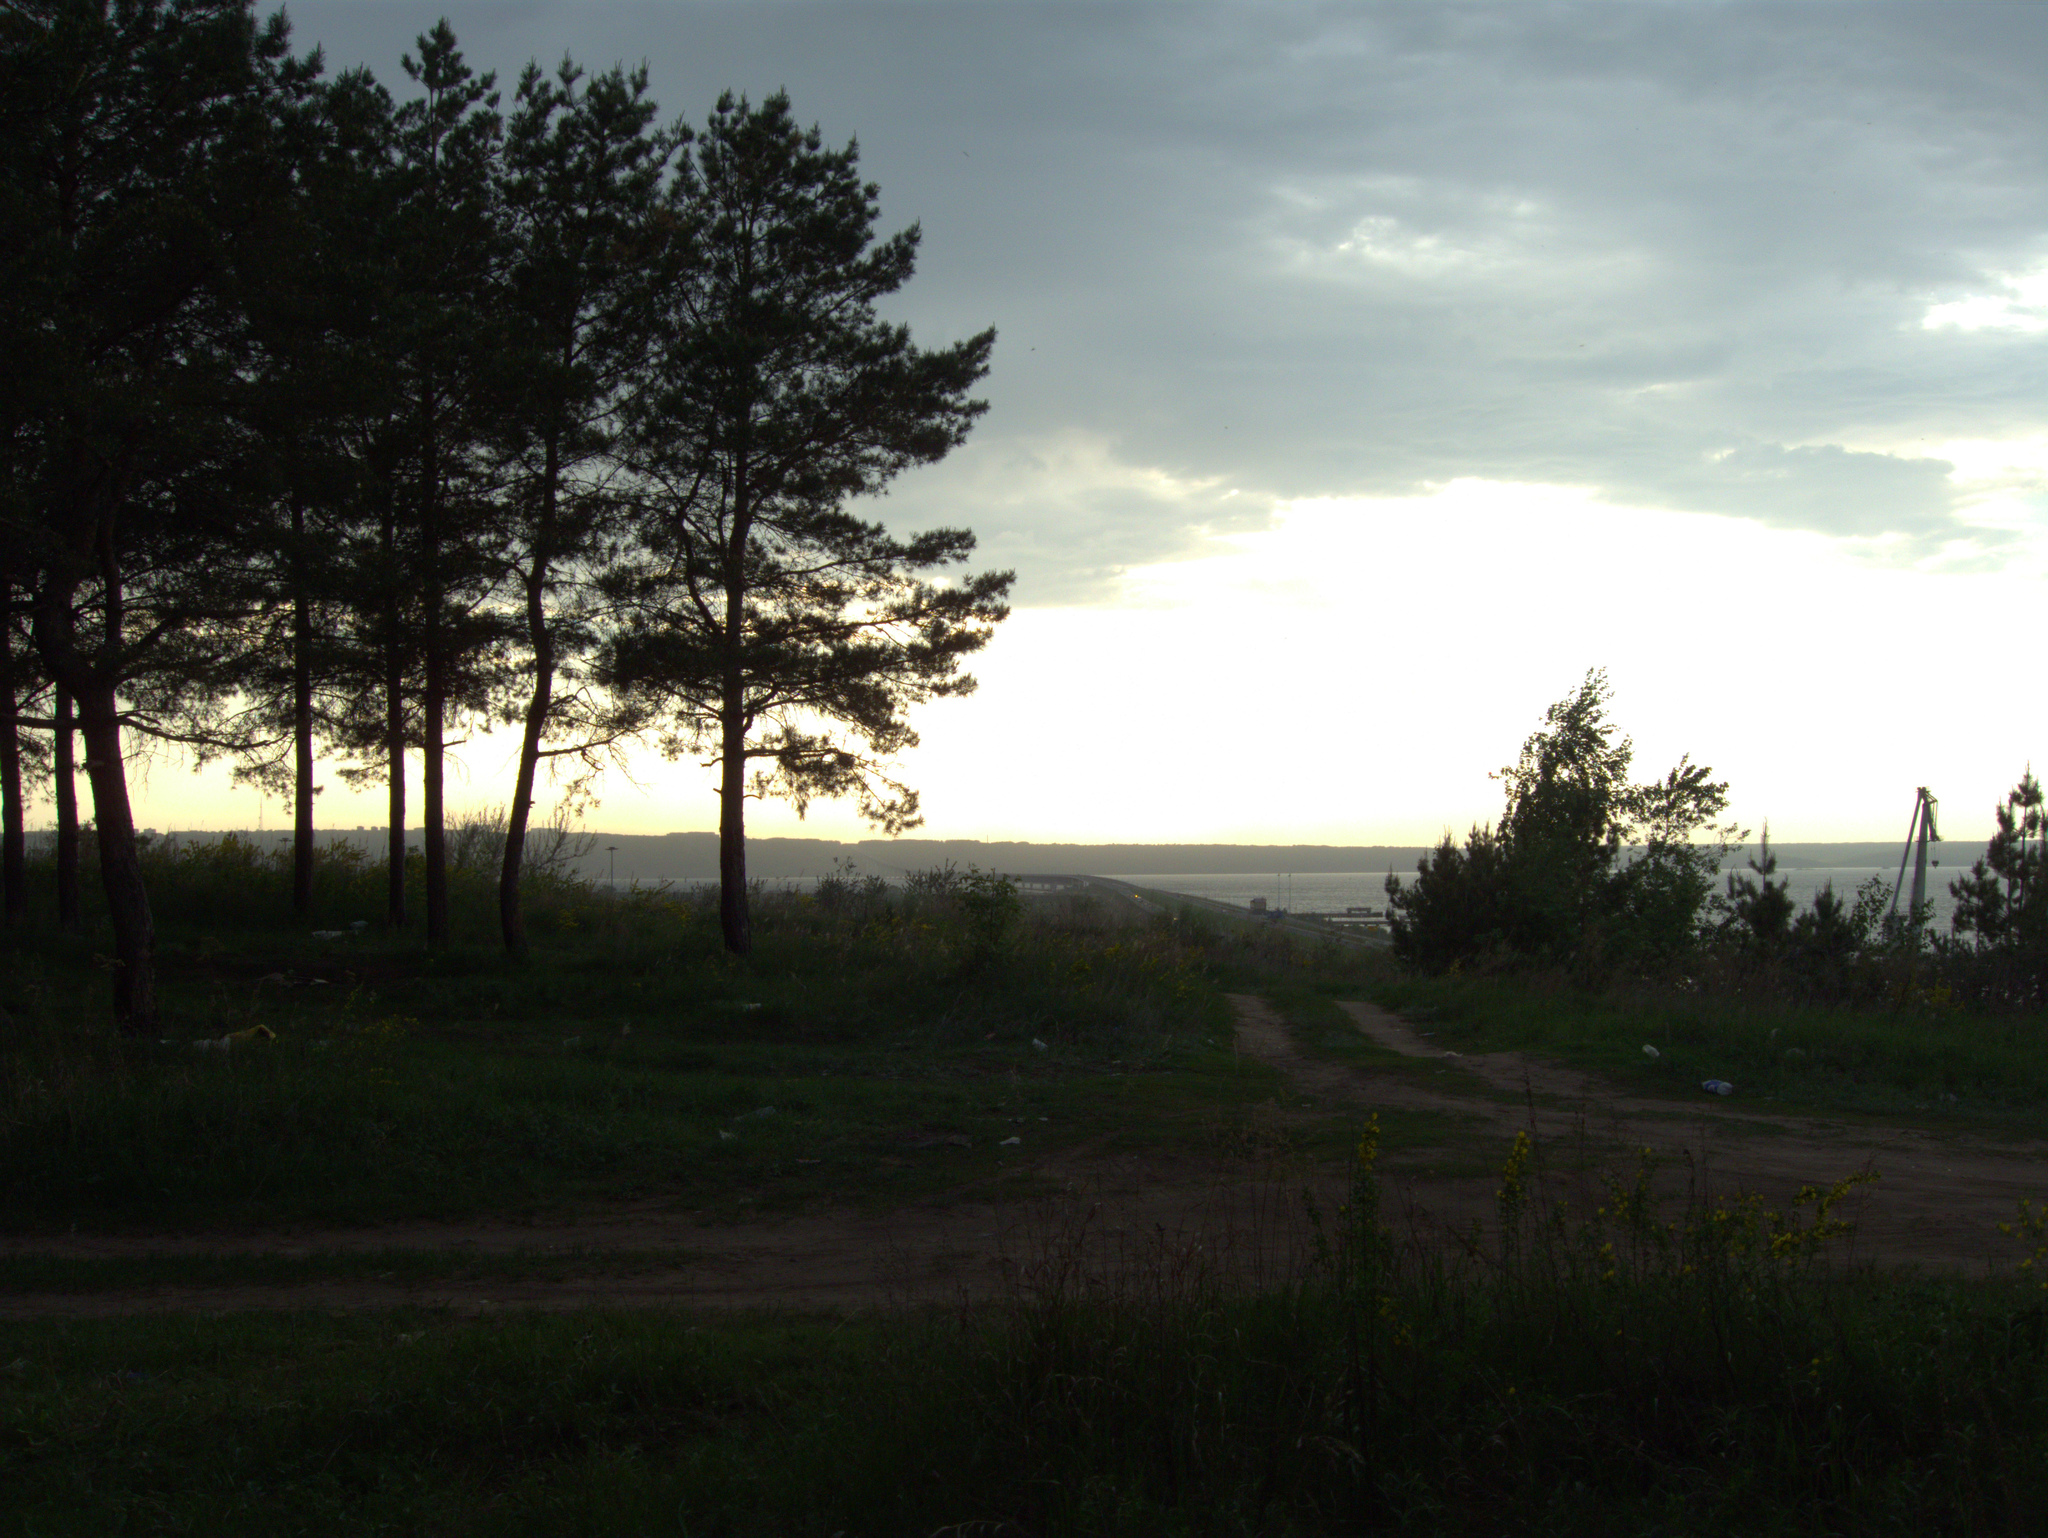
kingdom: Plantae
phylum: Tracheophyta
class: Pinopsida
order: Pinales
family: Pinaceae
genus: Pinus
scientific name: Pinus sylvestris
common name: Scots pine
